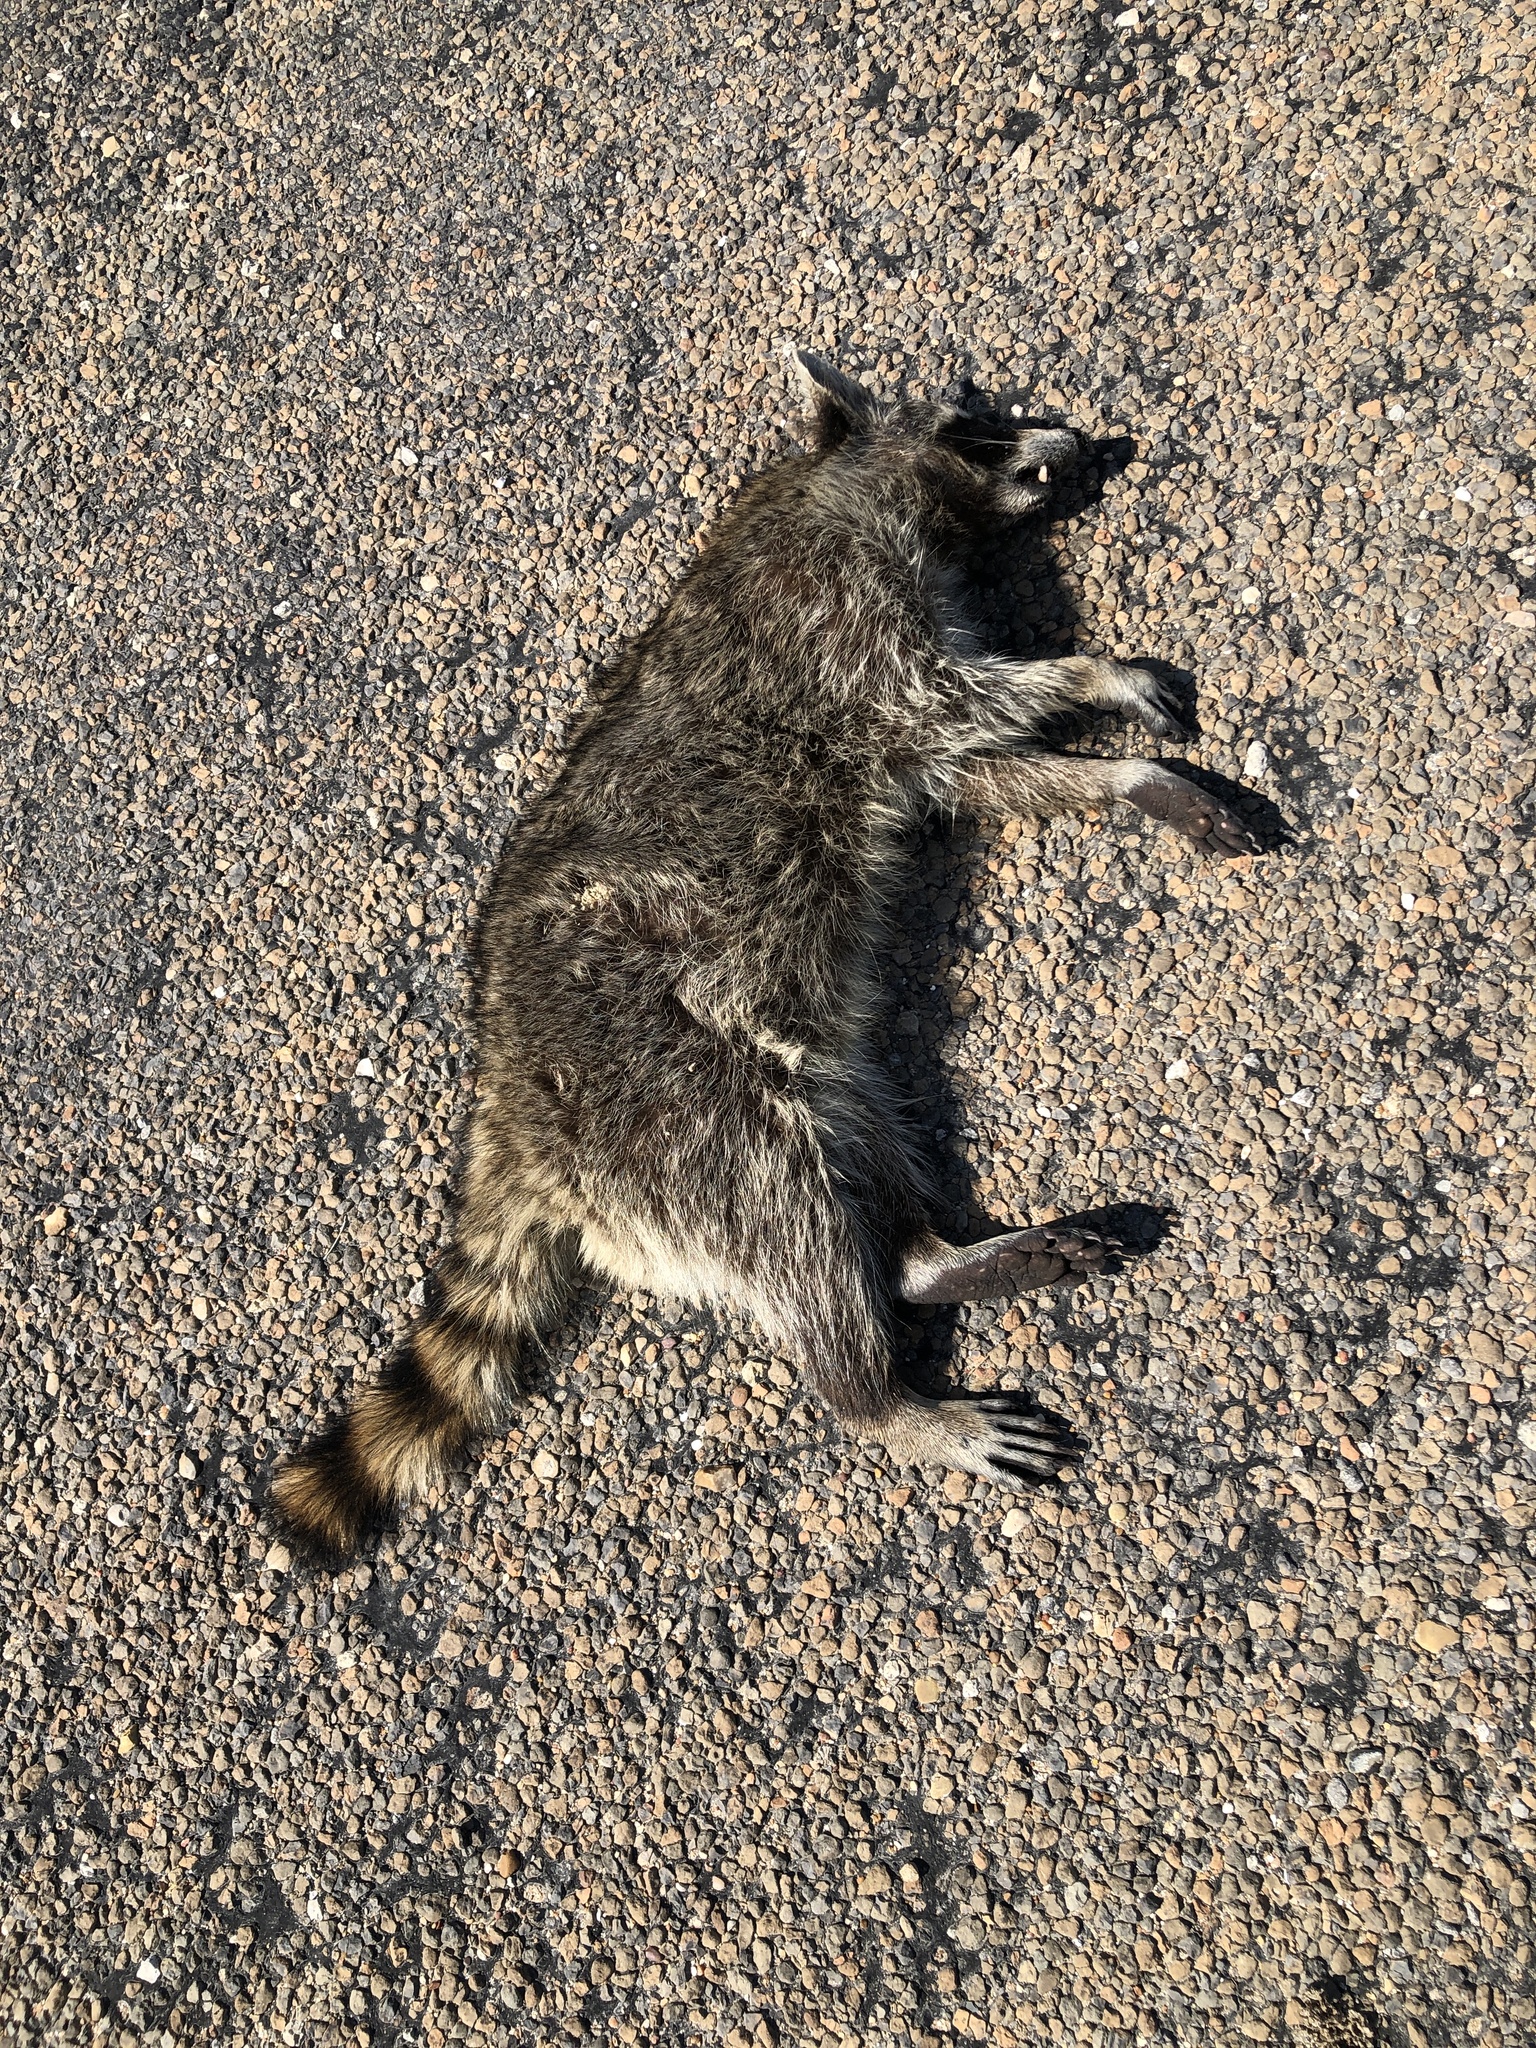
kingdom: Animalia
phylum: Chordata
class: Mammalia
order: Carnivora
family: Procyonidae
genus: Procyon
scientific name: Procyon lotor
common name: Raccoon
